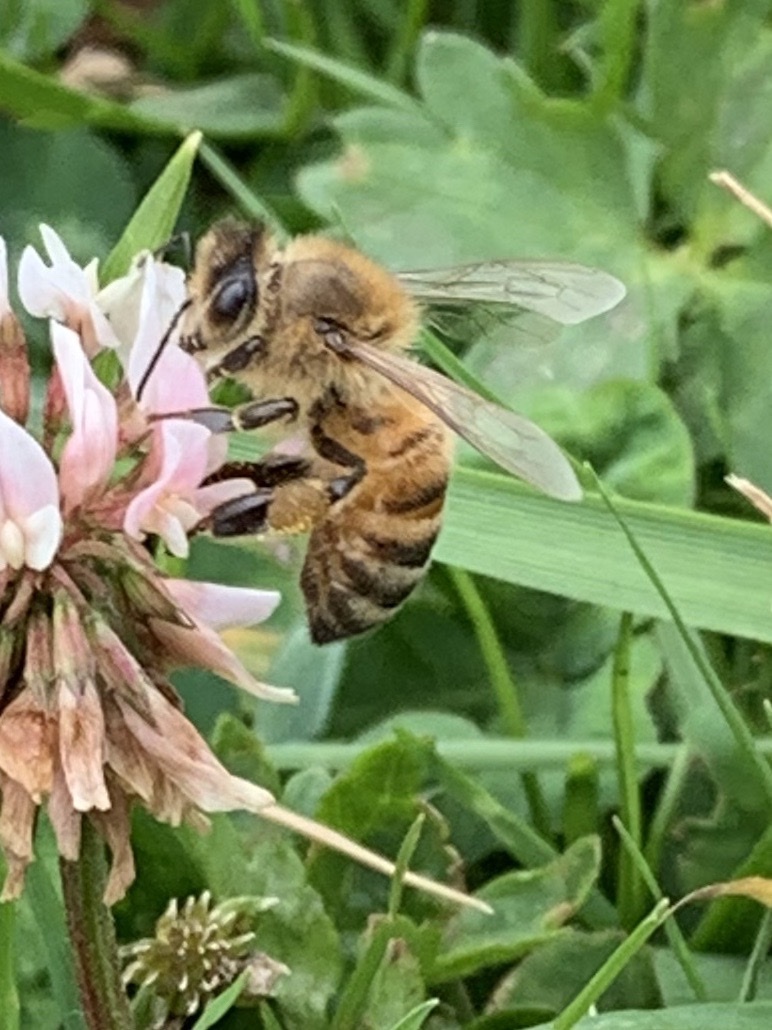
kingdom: Animalia
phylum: Arthropoda
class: Insecta
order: Hymenoptera
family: Apidae
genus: Apis
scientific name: Apis mellifera
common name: Honey bee
